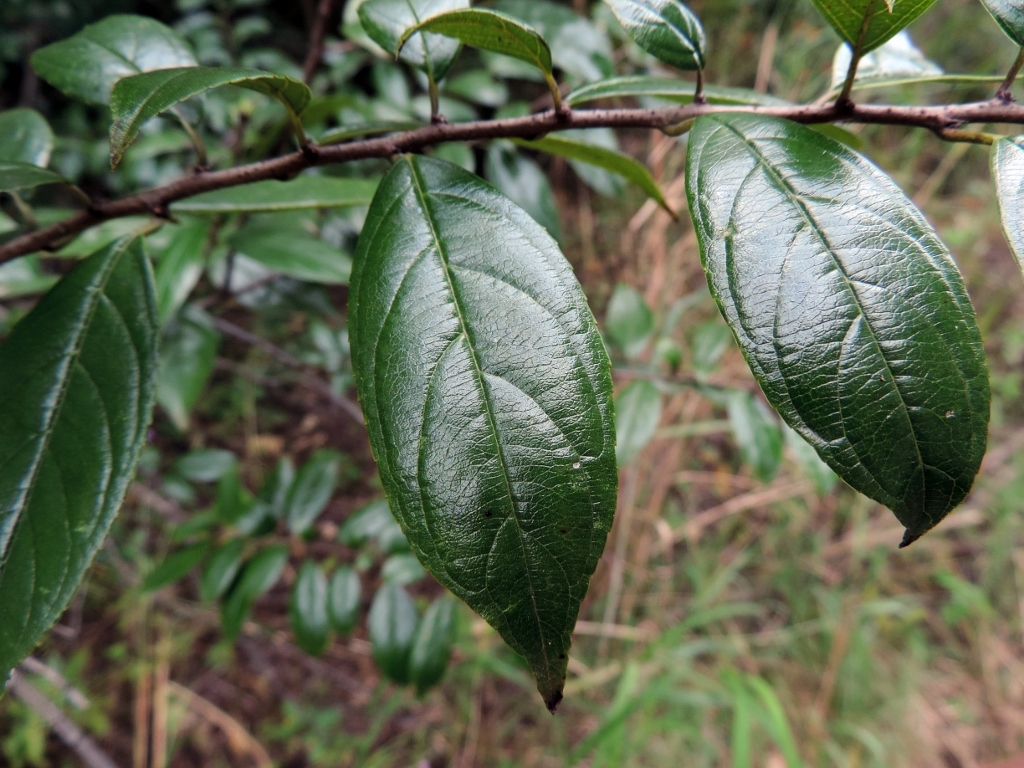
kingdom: Plantae
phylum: Tracheophyta
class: Magnoliopsida
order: Rosales
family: Rhamnaceae
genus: Rhamnus
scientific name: Rhamnus prinoides
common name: Dogwood
